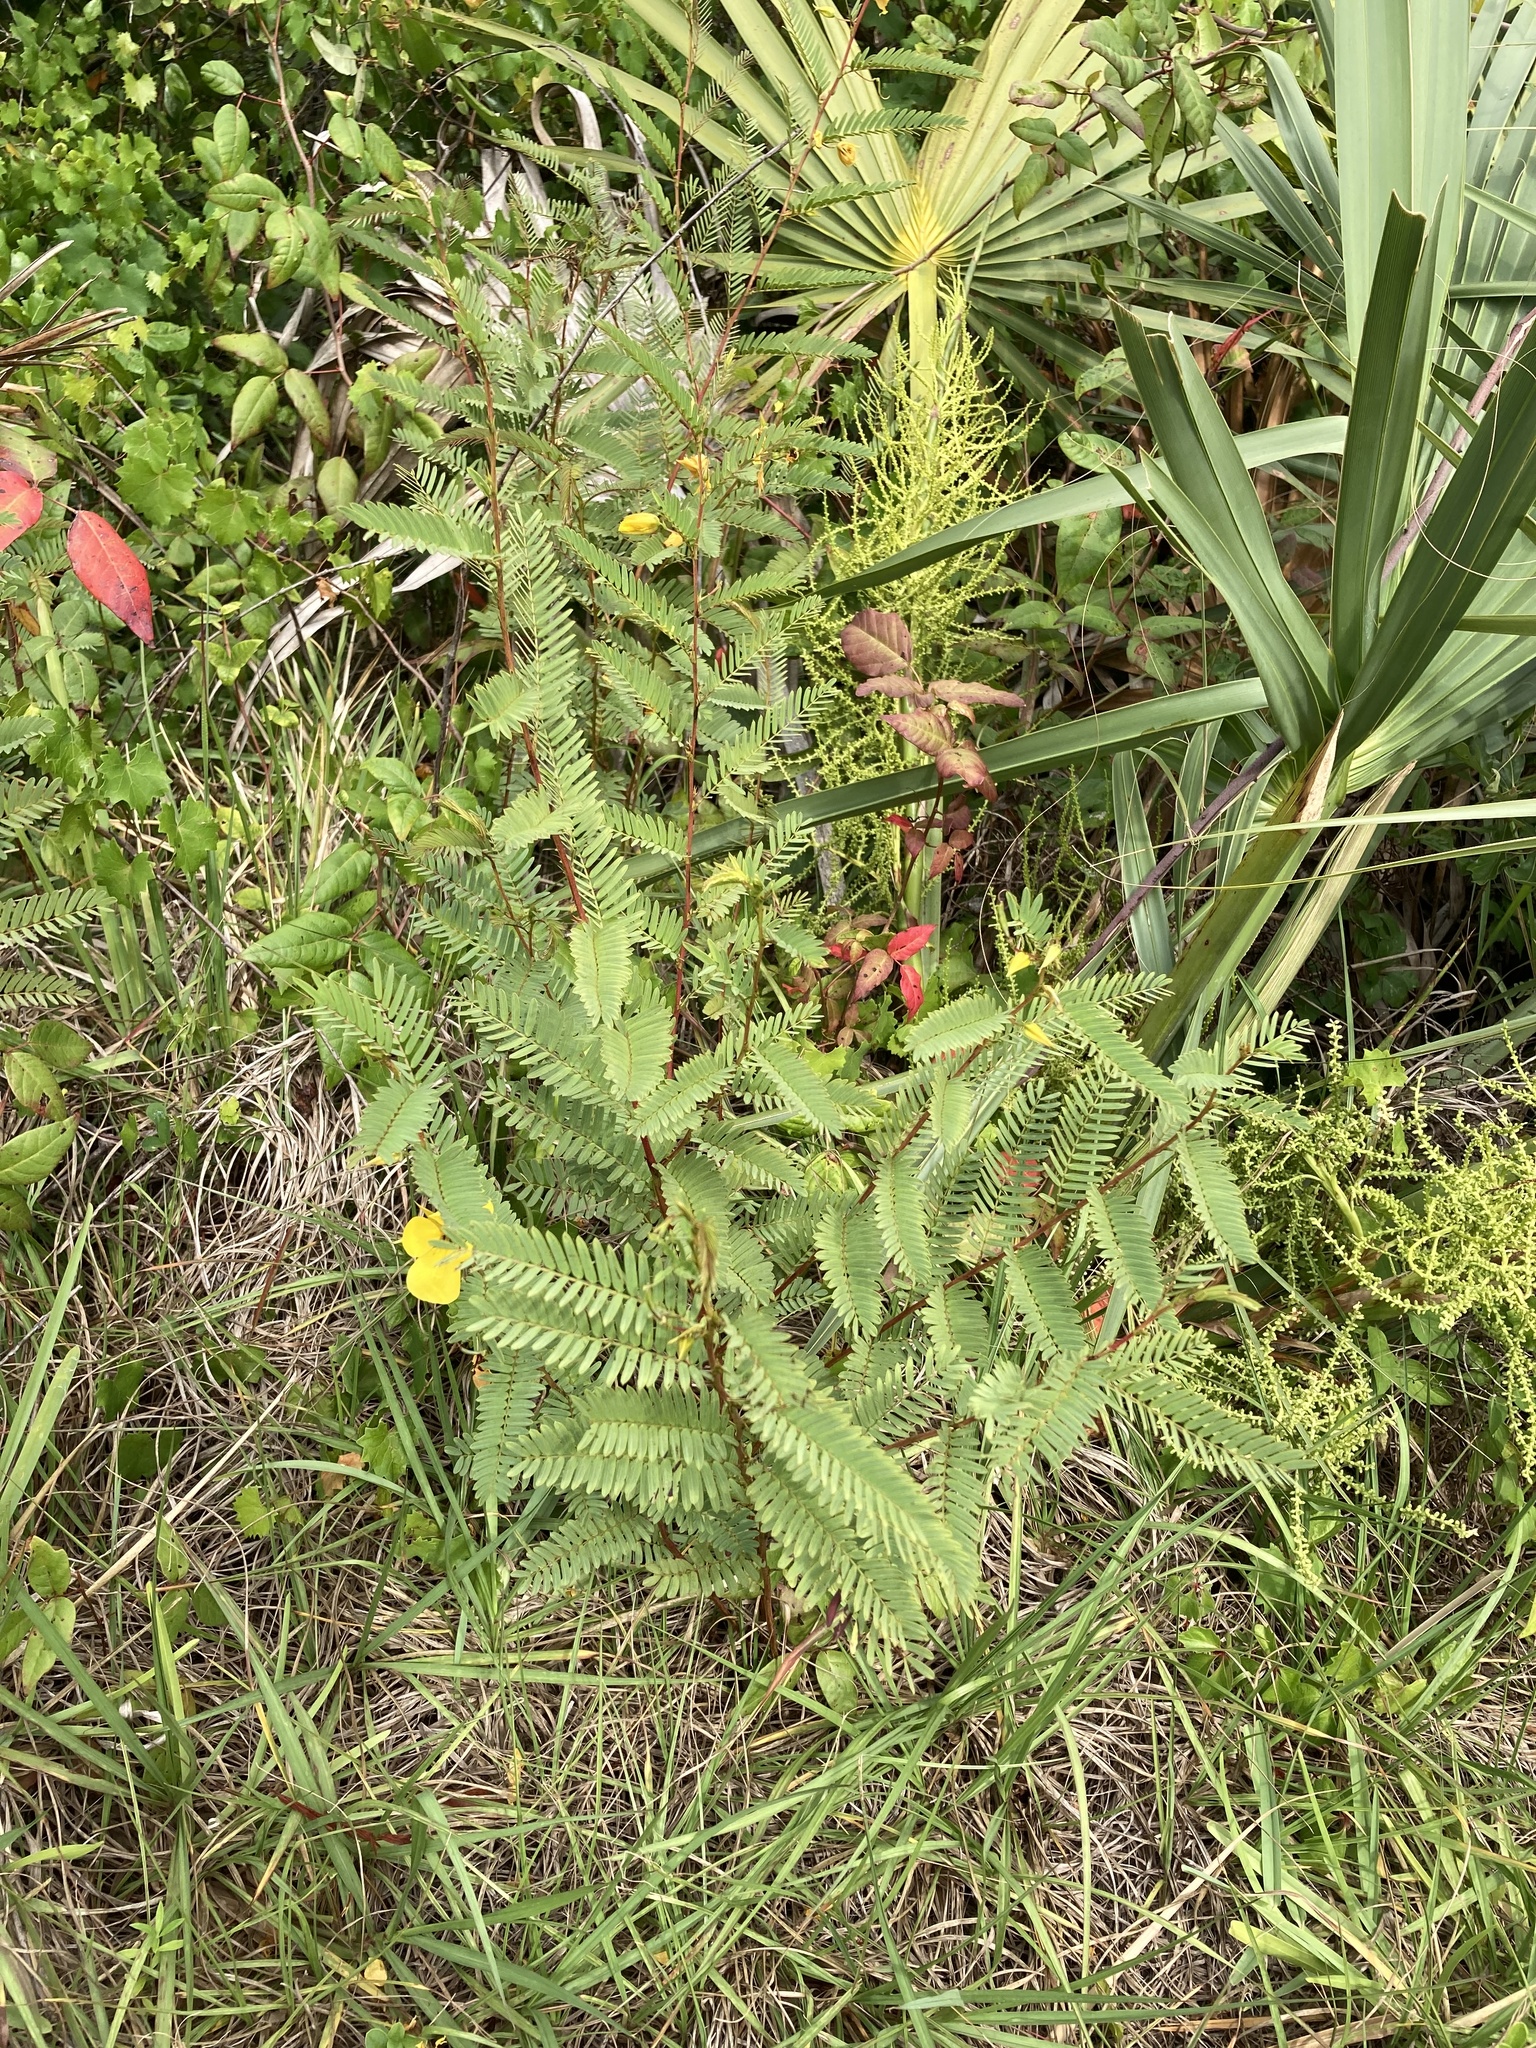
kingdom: Plantae
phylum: Tracheophyta
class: Magnoliopsida
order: Fabales
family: Fabaceae
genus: Chamaecrista
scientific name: Chamaecrista fasciculata
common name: Golden cassia
